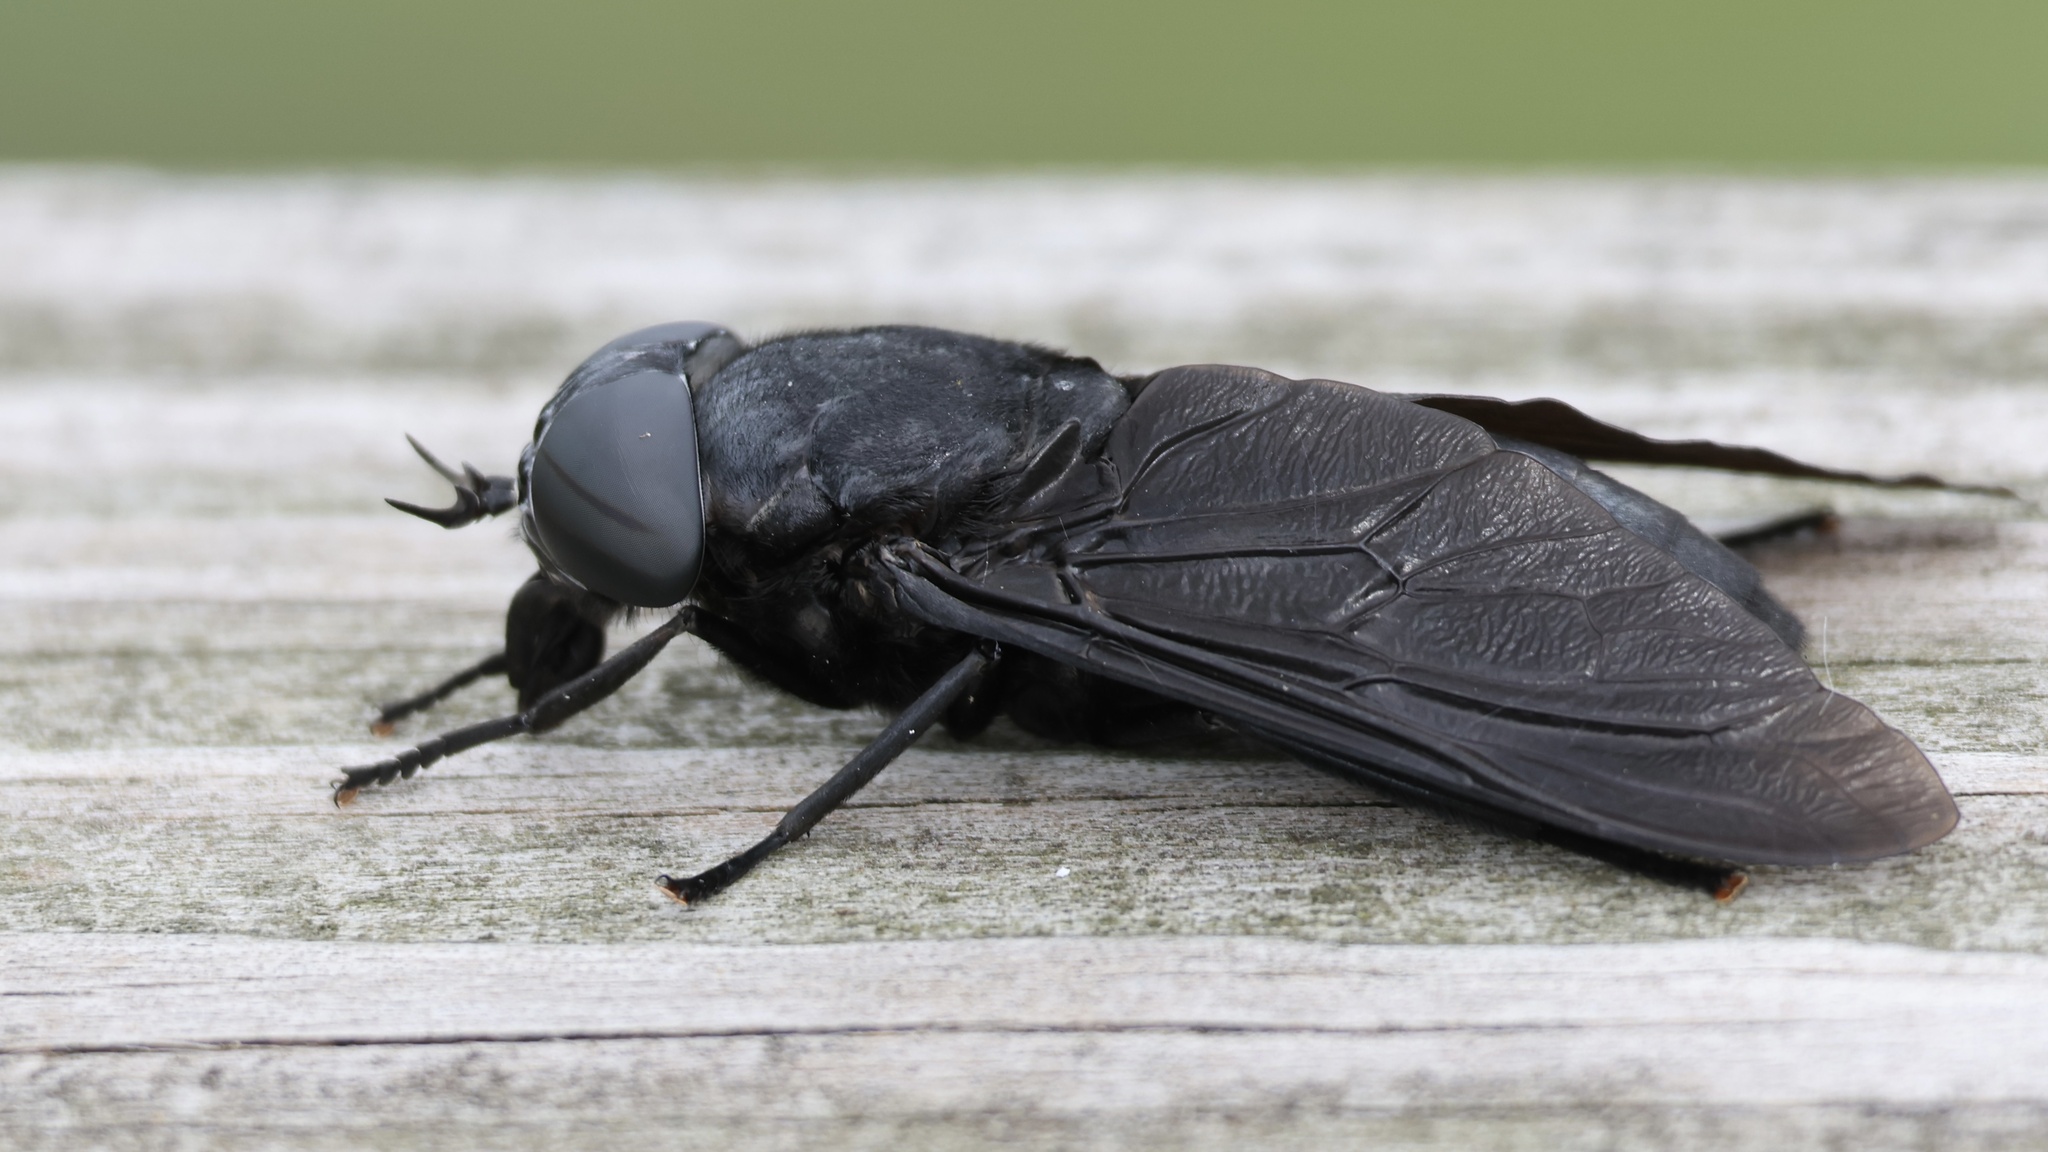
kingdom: Animalia
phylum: Arthropoda
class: Insecta
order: Diptera
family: Tabanidae
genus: Tabanus
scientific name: Tabanus atratus
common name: Black horse fly
